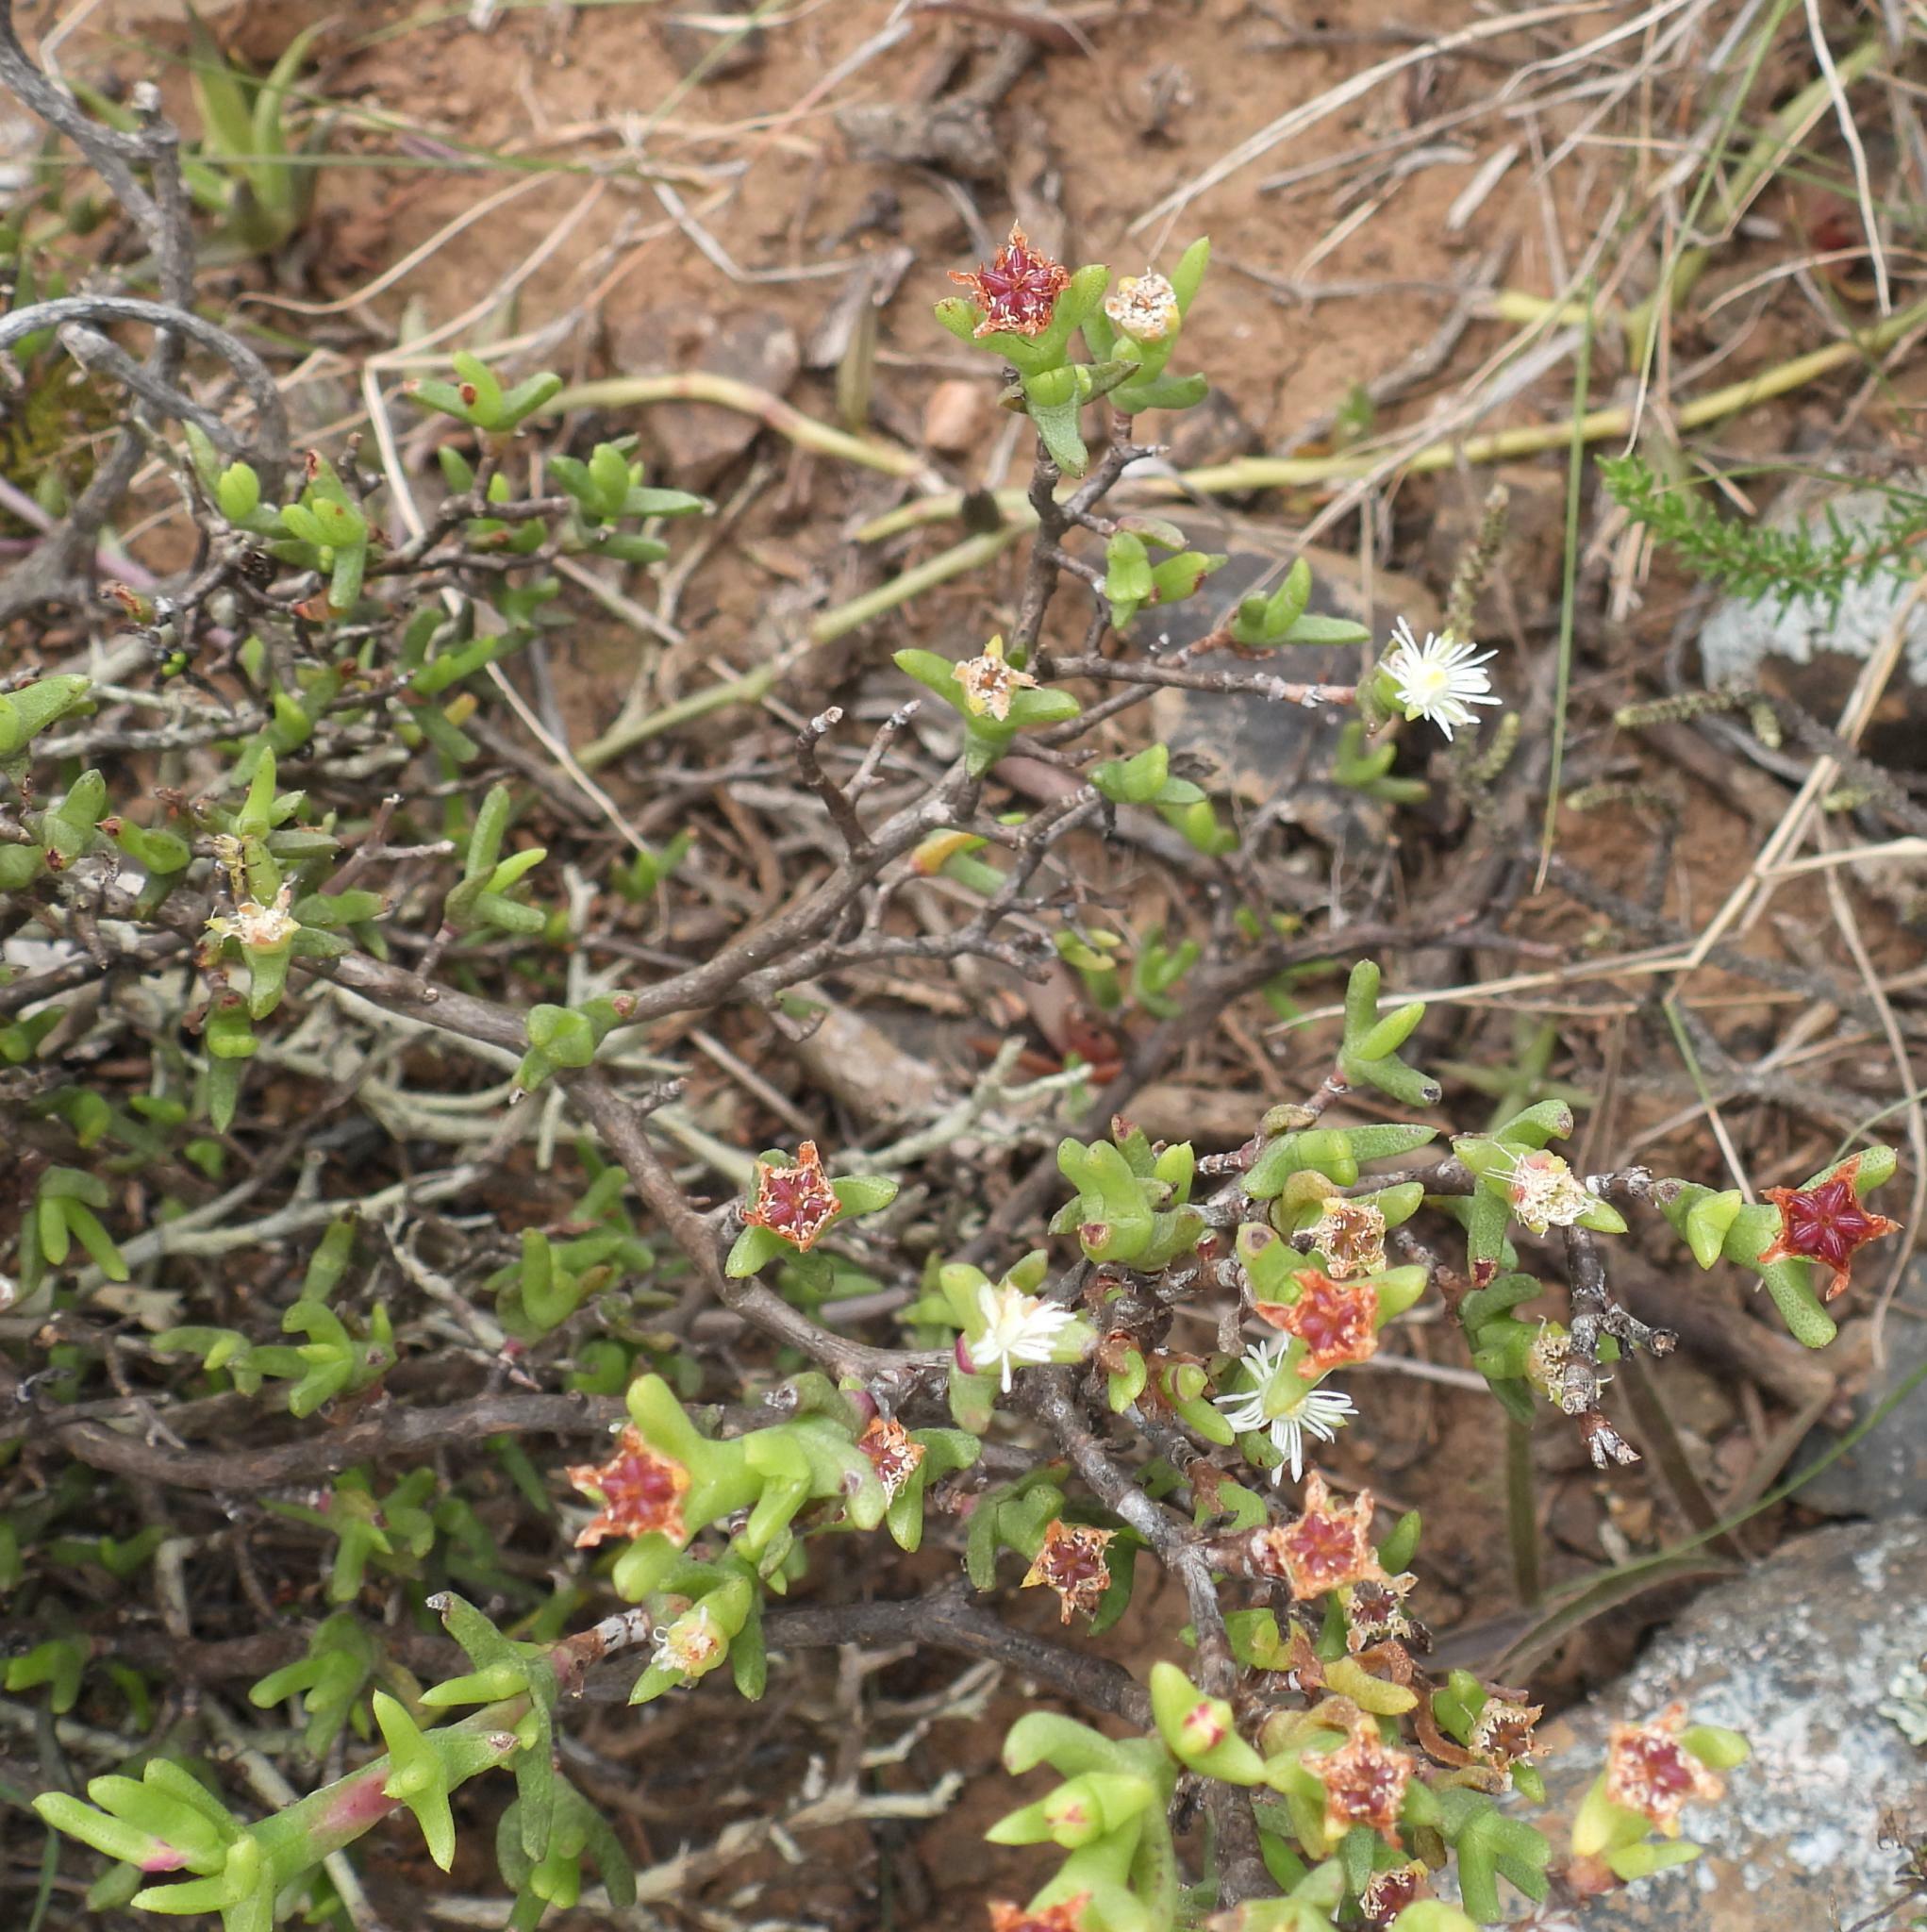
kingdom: Plantae
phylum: Tracheophyta
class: Magnoliopsida
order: Caryophyllales
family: Aizoaceae
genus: Ruschia
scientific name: Ruschia complanata
